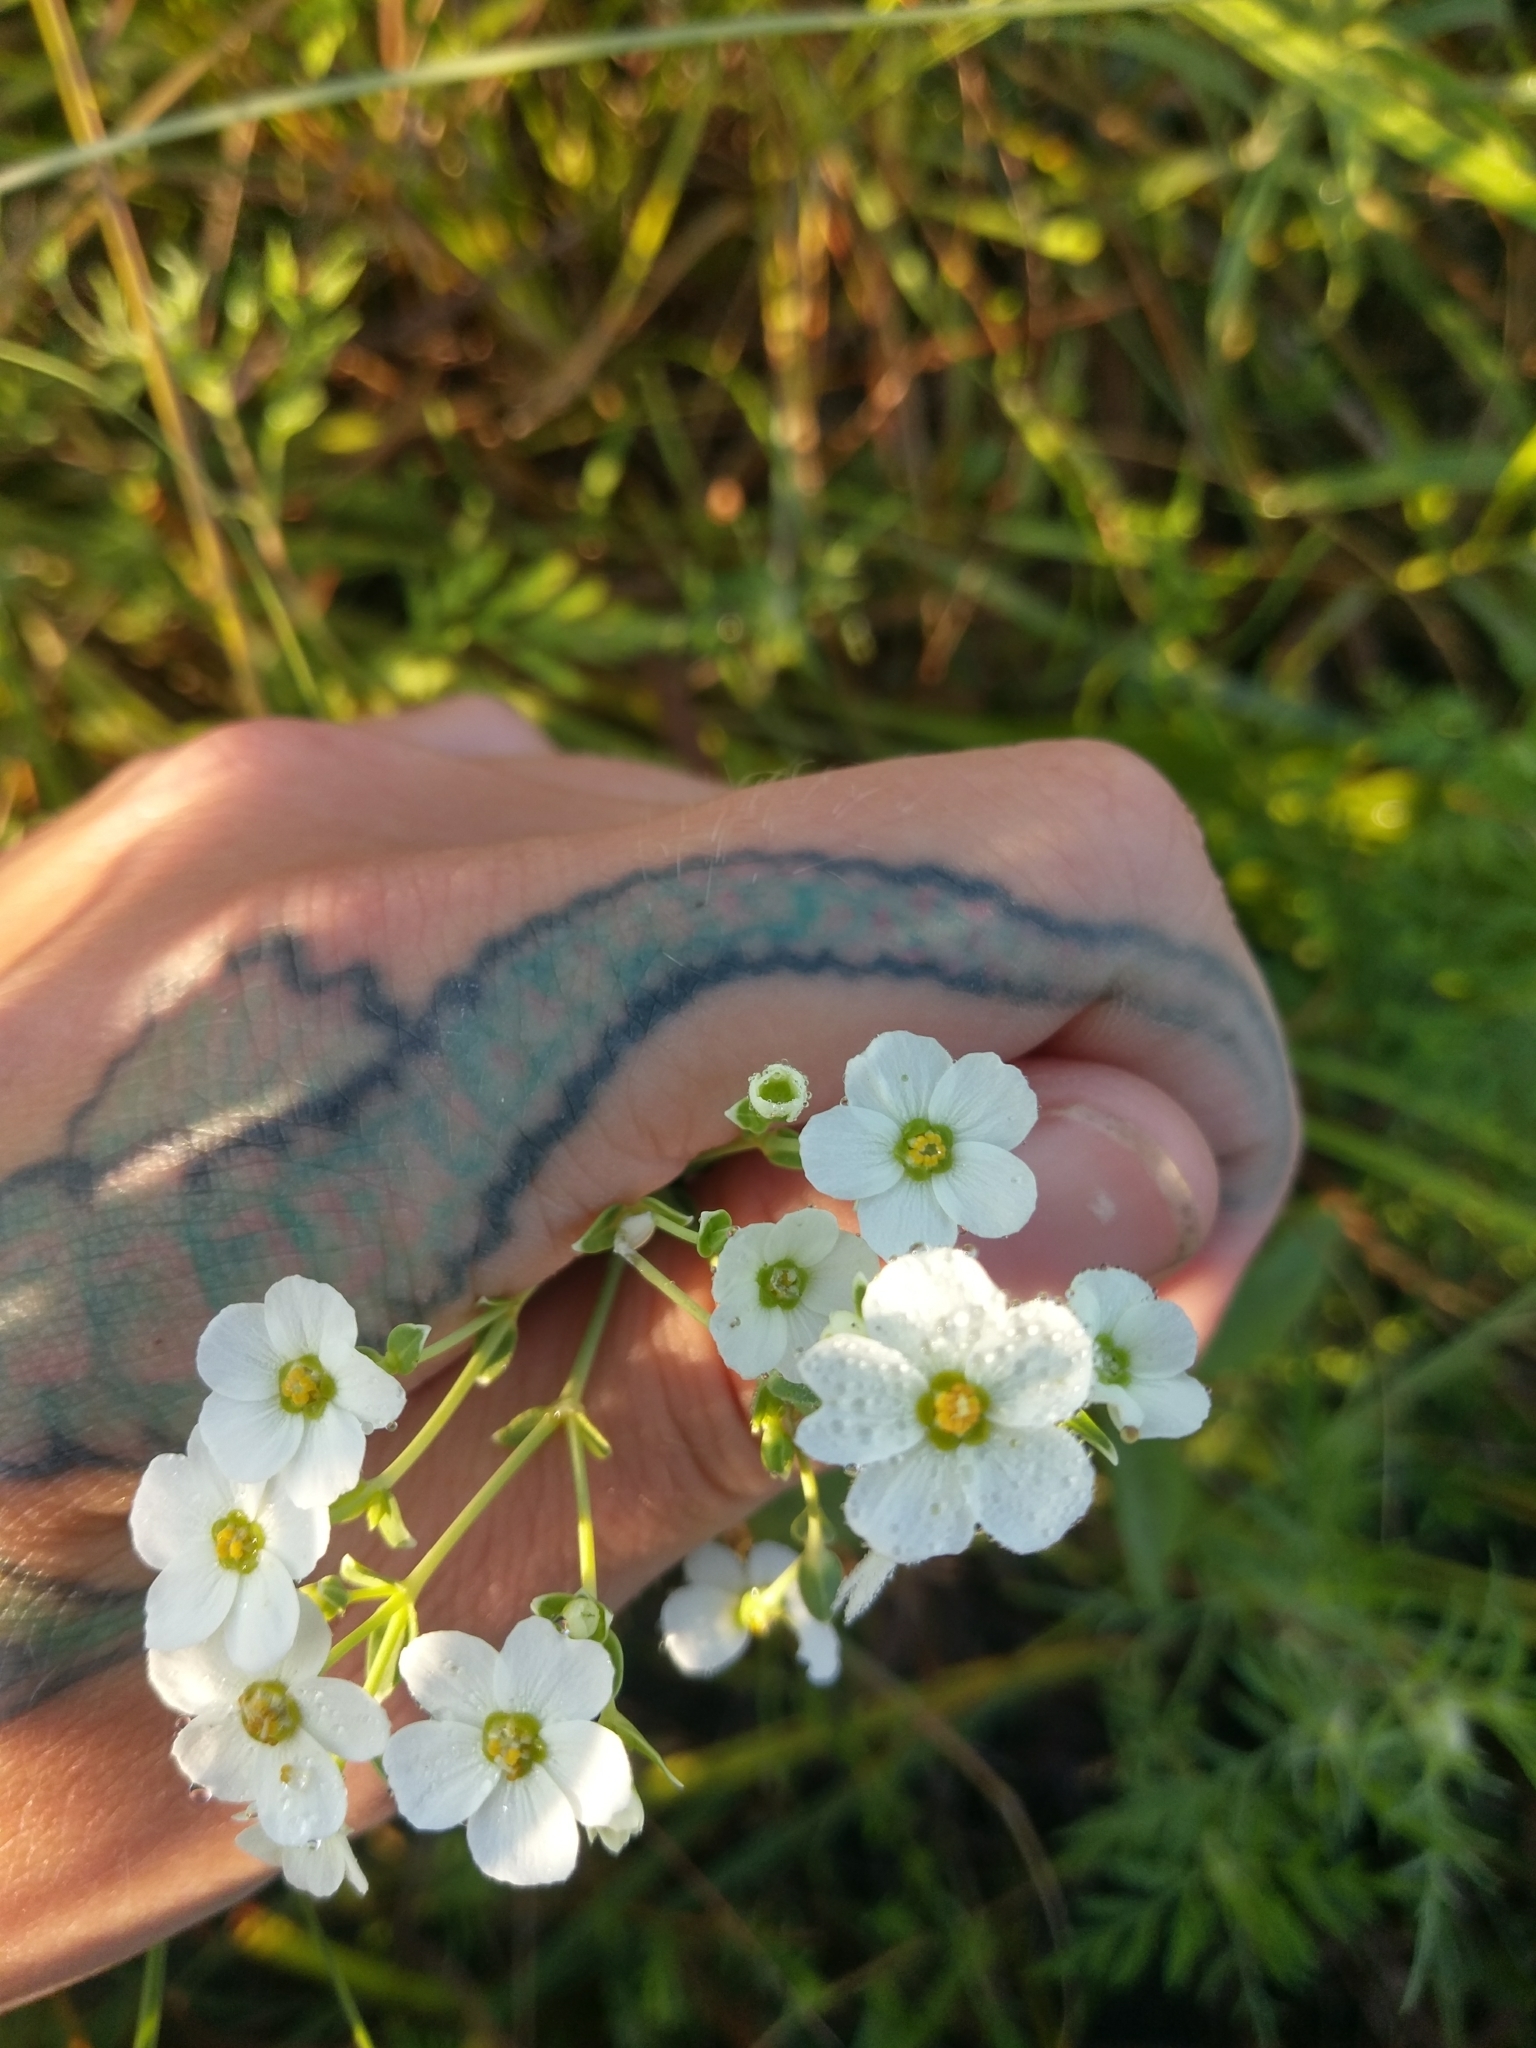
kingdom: Plantae
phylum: Tracheophyta
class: Magnoliopsida
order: Malpighiales
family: Euphorbiaceae
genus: Euphorbia
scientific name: Euphorbia corollata
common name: Flowering spurge
